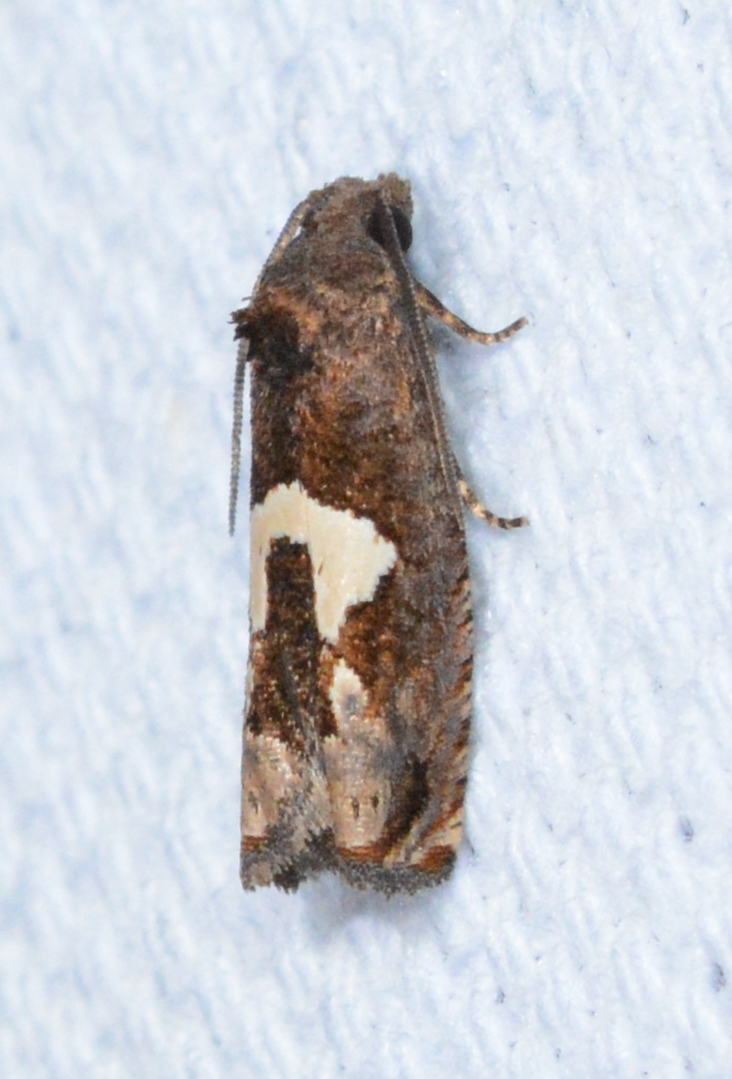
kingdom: Animalia
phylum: Arthropoda
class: Insecta
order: Lepidoptera
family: Tortricidae
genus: Epiblema
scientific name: Epiblema otiosana
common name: Bidens borer moth
